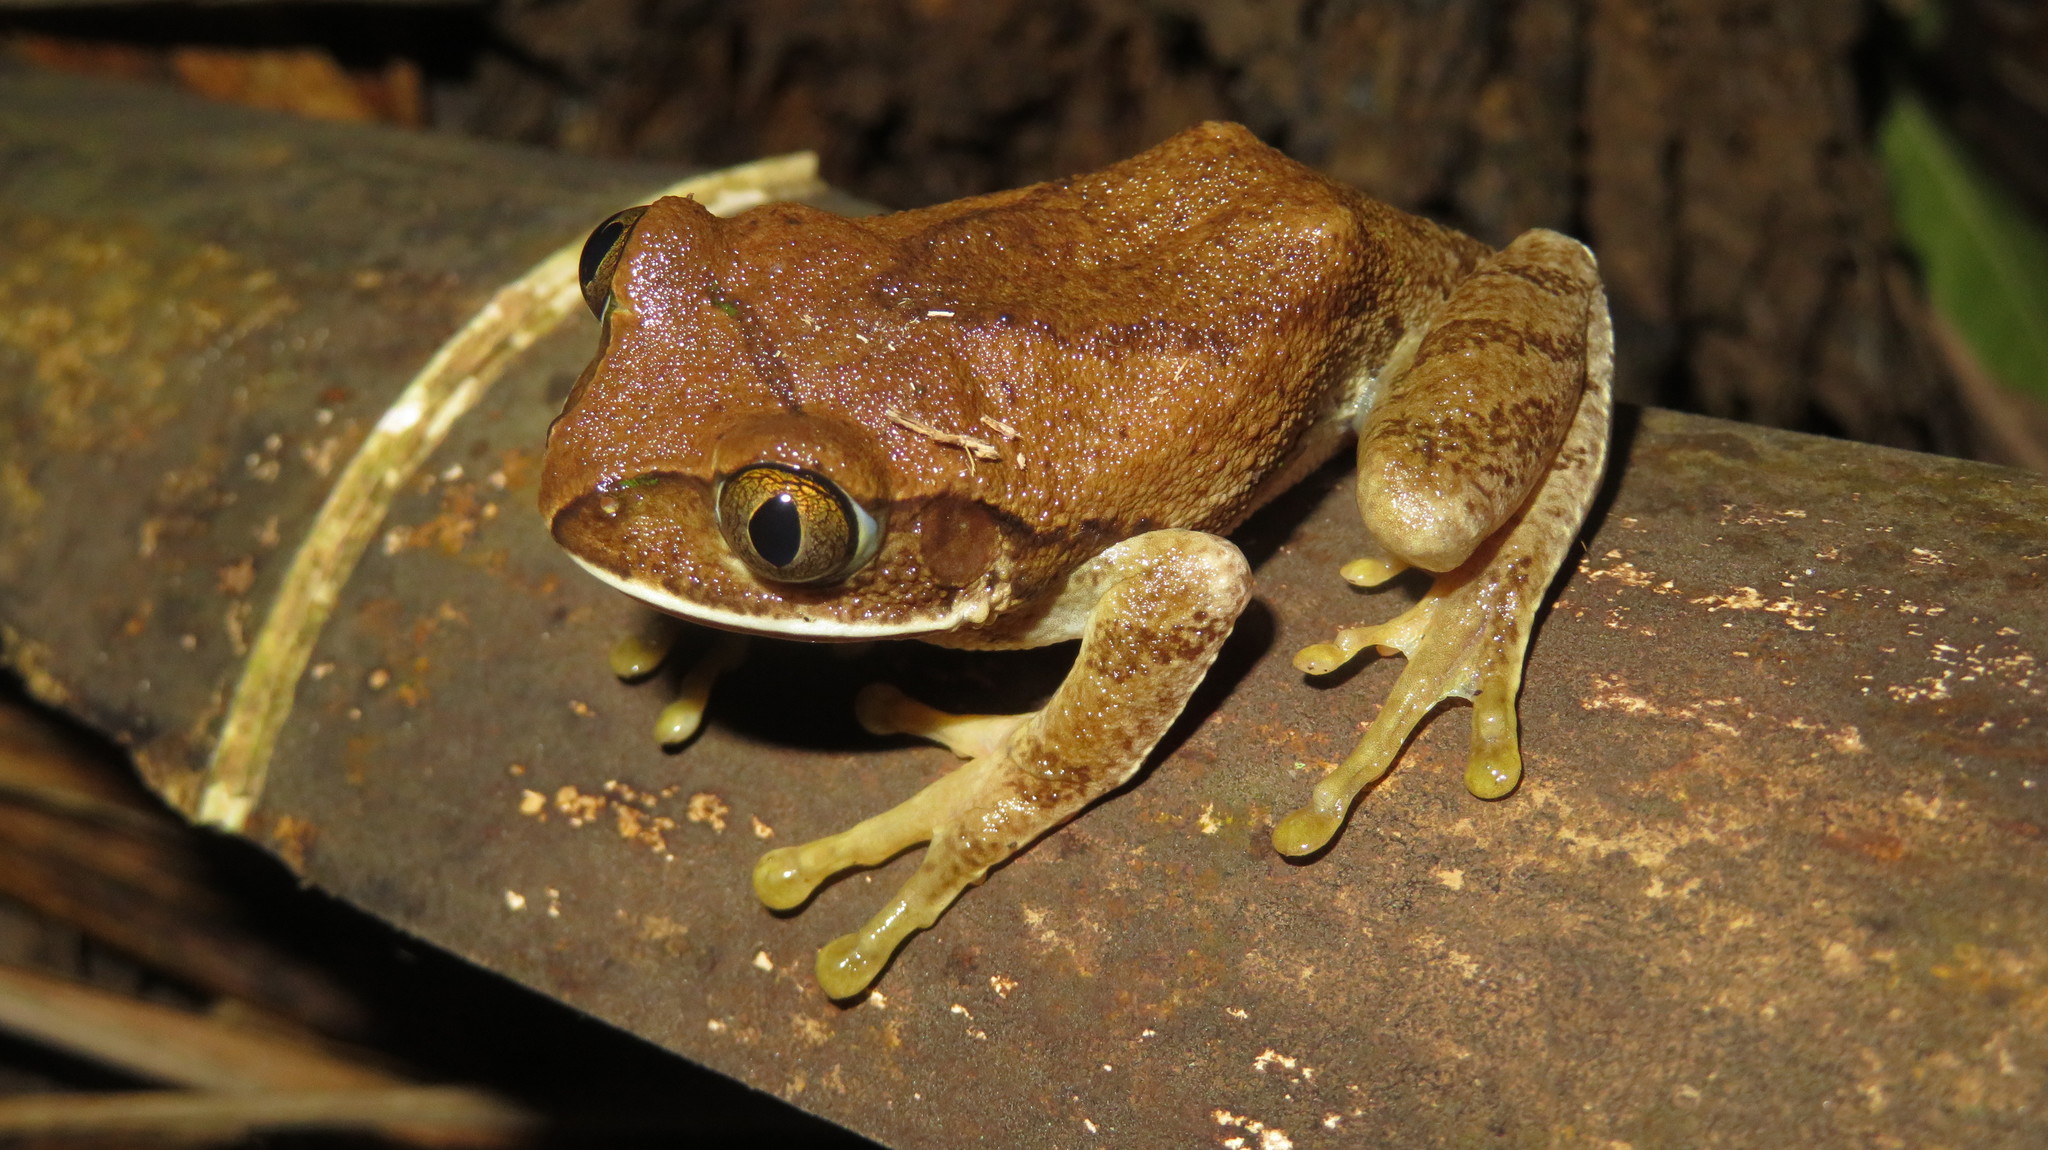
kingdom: Animalia
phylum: Chordata
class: Amphibia
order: Anura
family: Arthroleptidae
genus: Leptopelis
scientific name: Leptopelis flavomaculatus
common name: Johnston's treefrog
